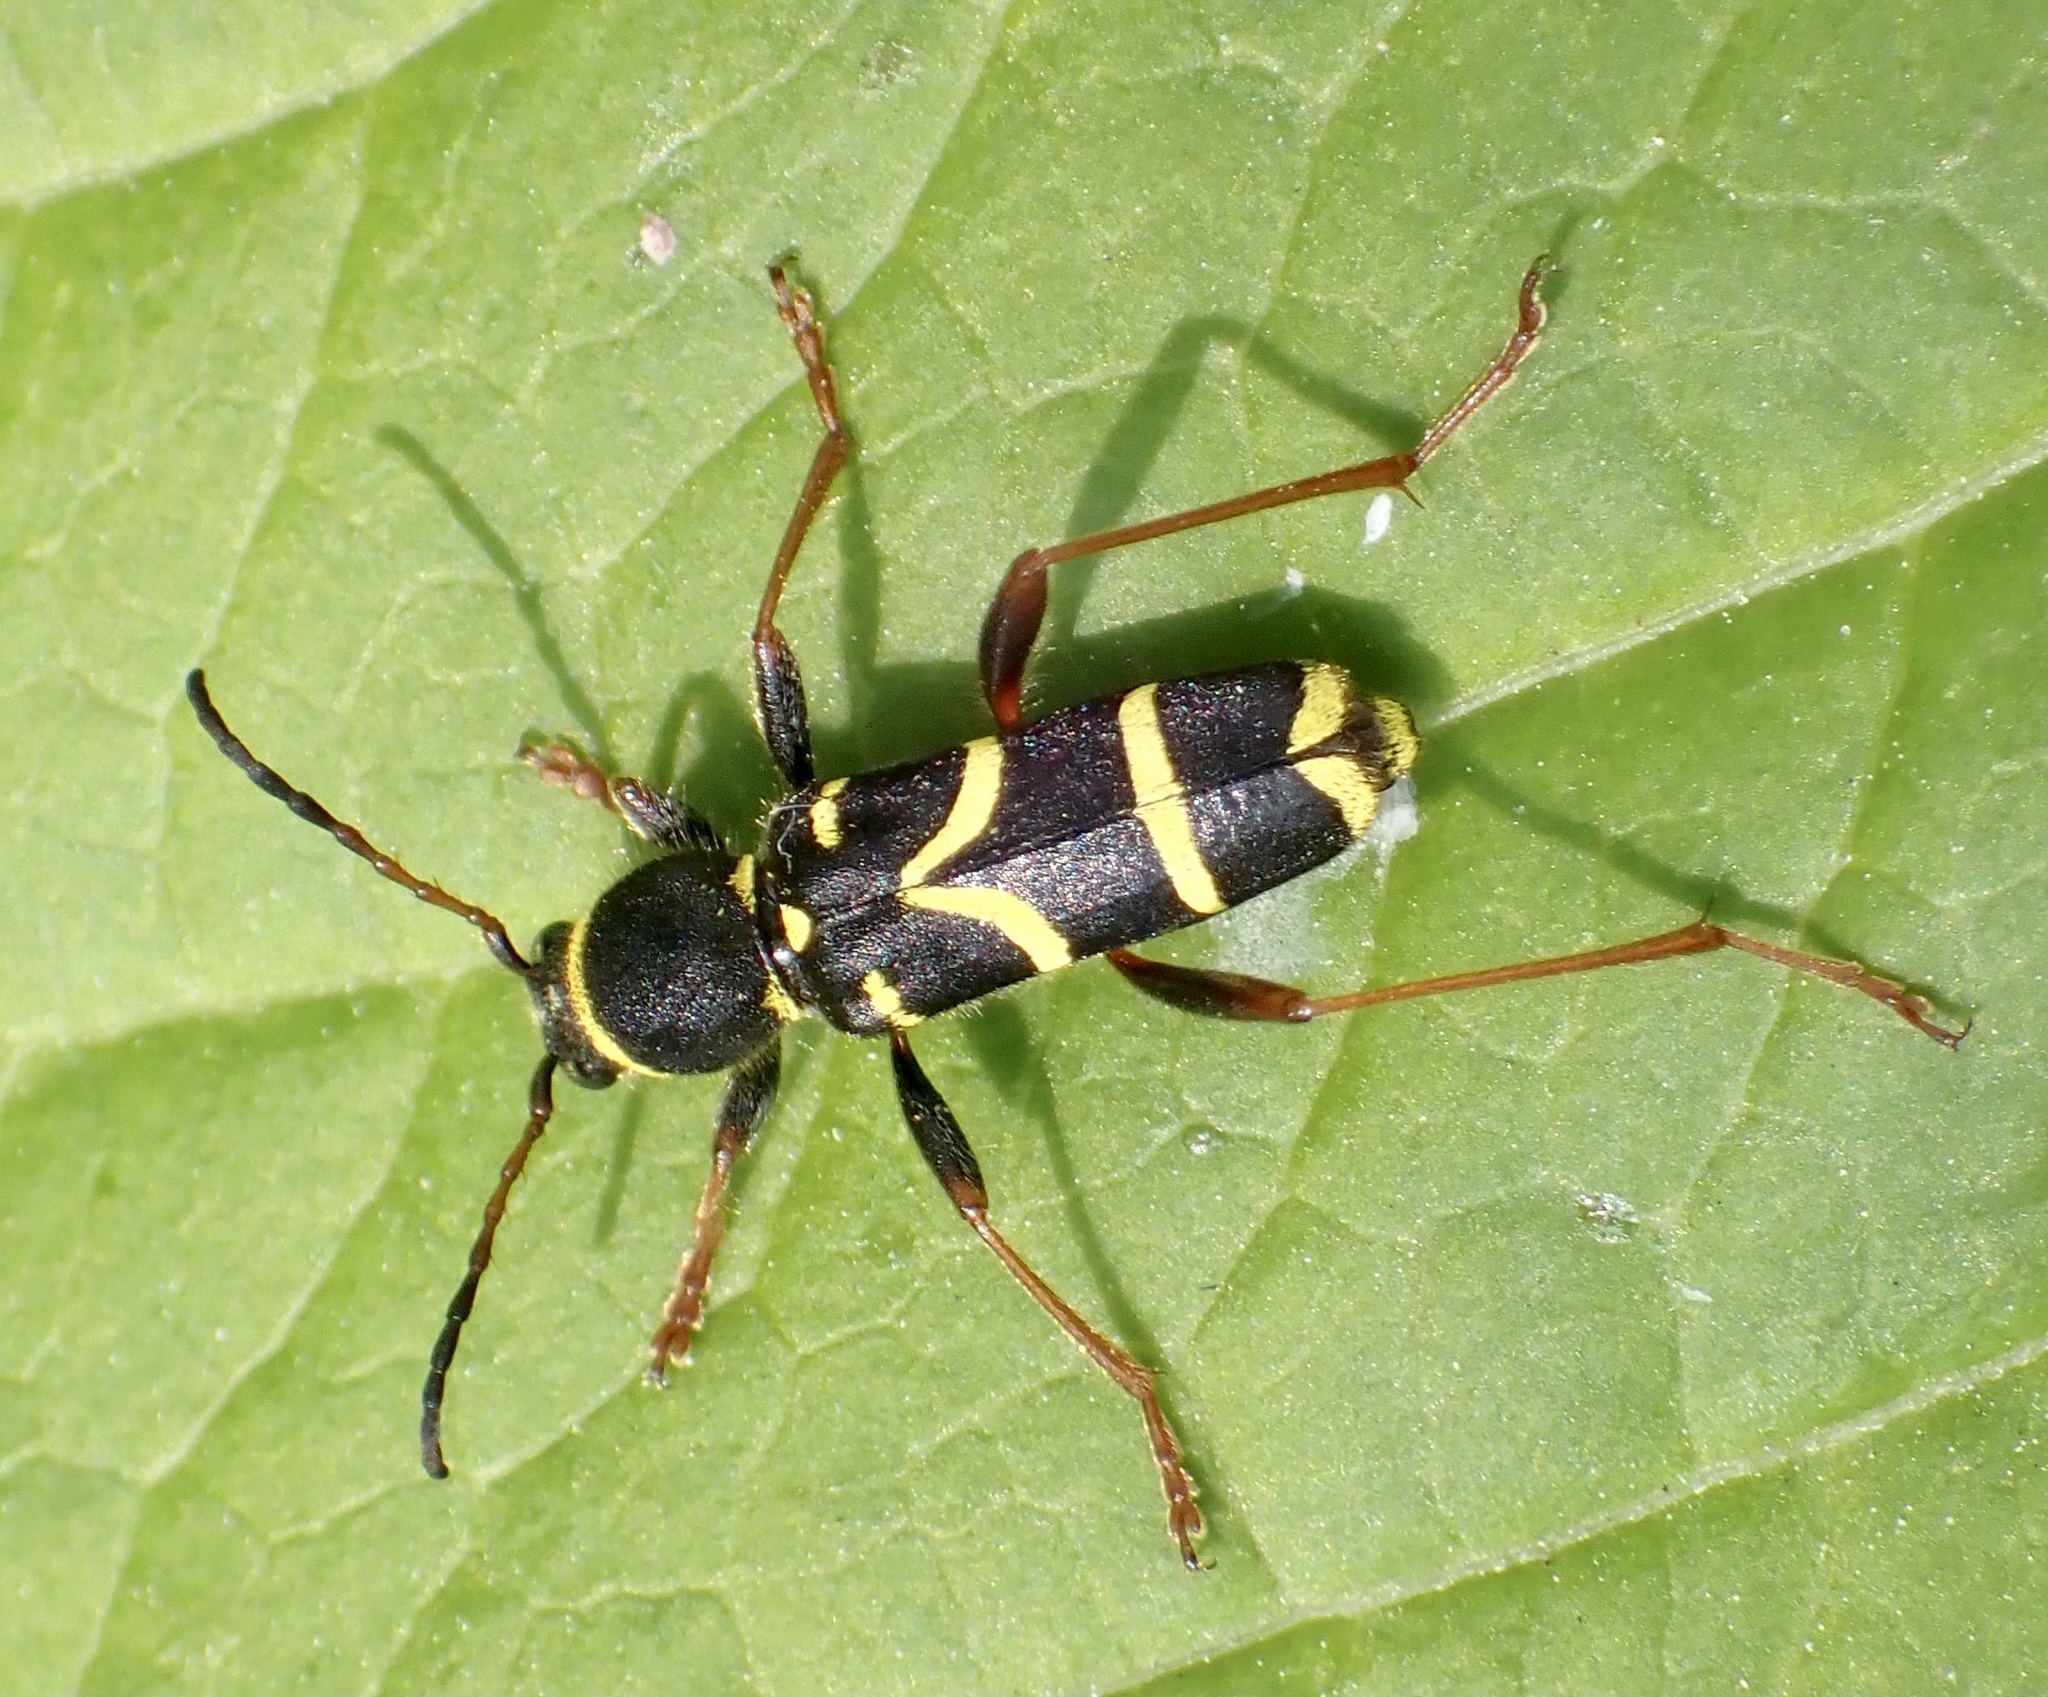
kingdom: Animalia
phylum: Arthropoda
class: Insecta
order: Coleoptera
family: Cerambycidae
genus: Clytus
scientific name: Clytus arietis
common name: Wasp beetle
